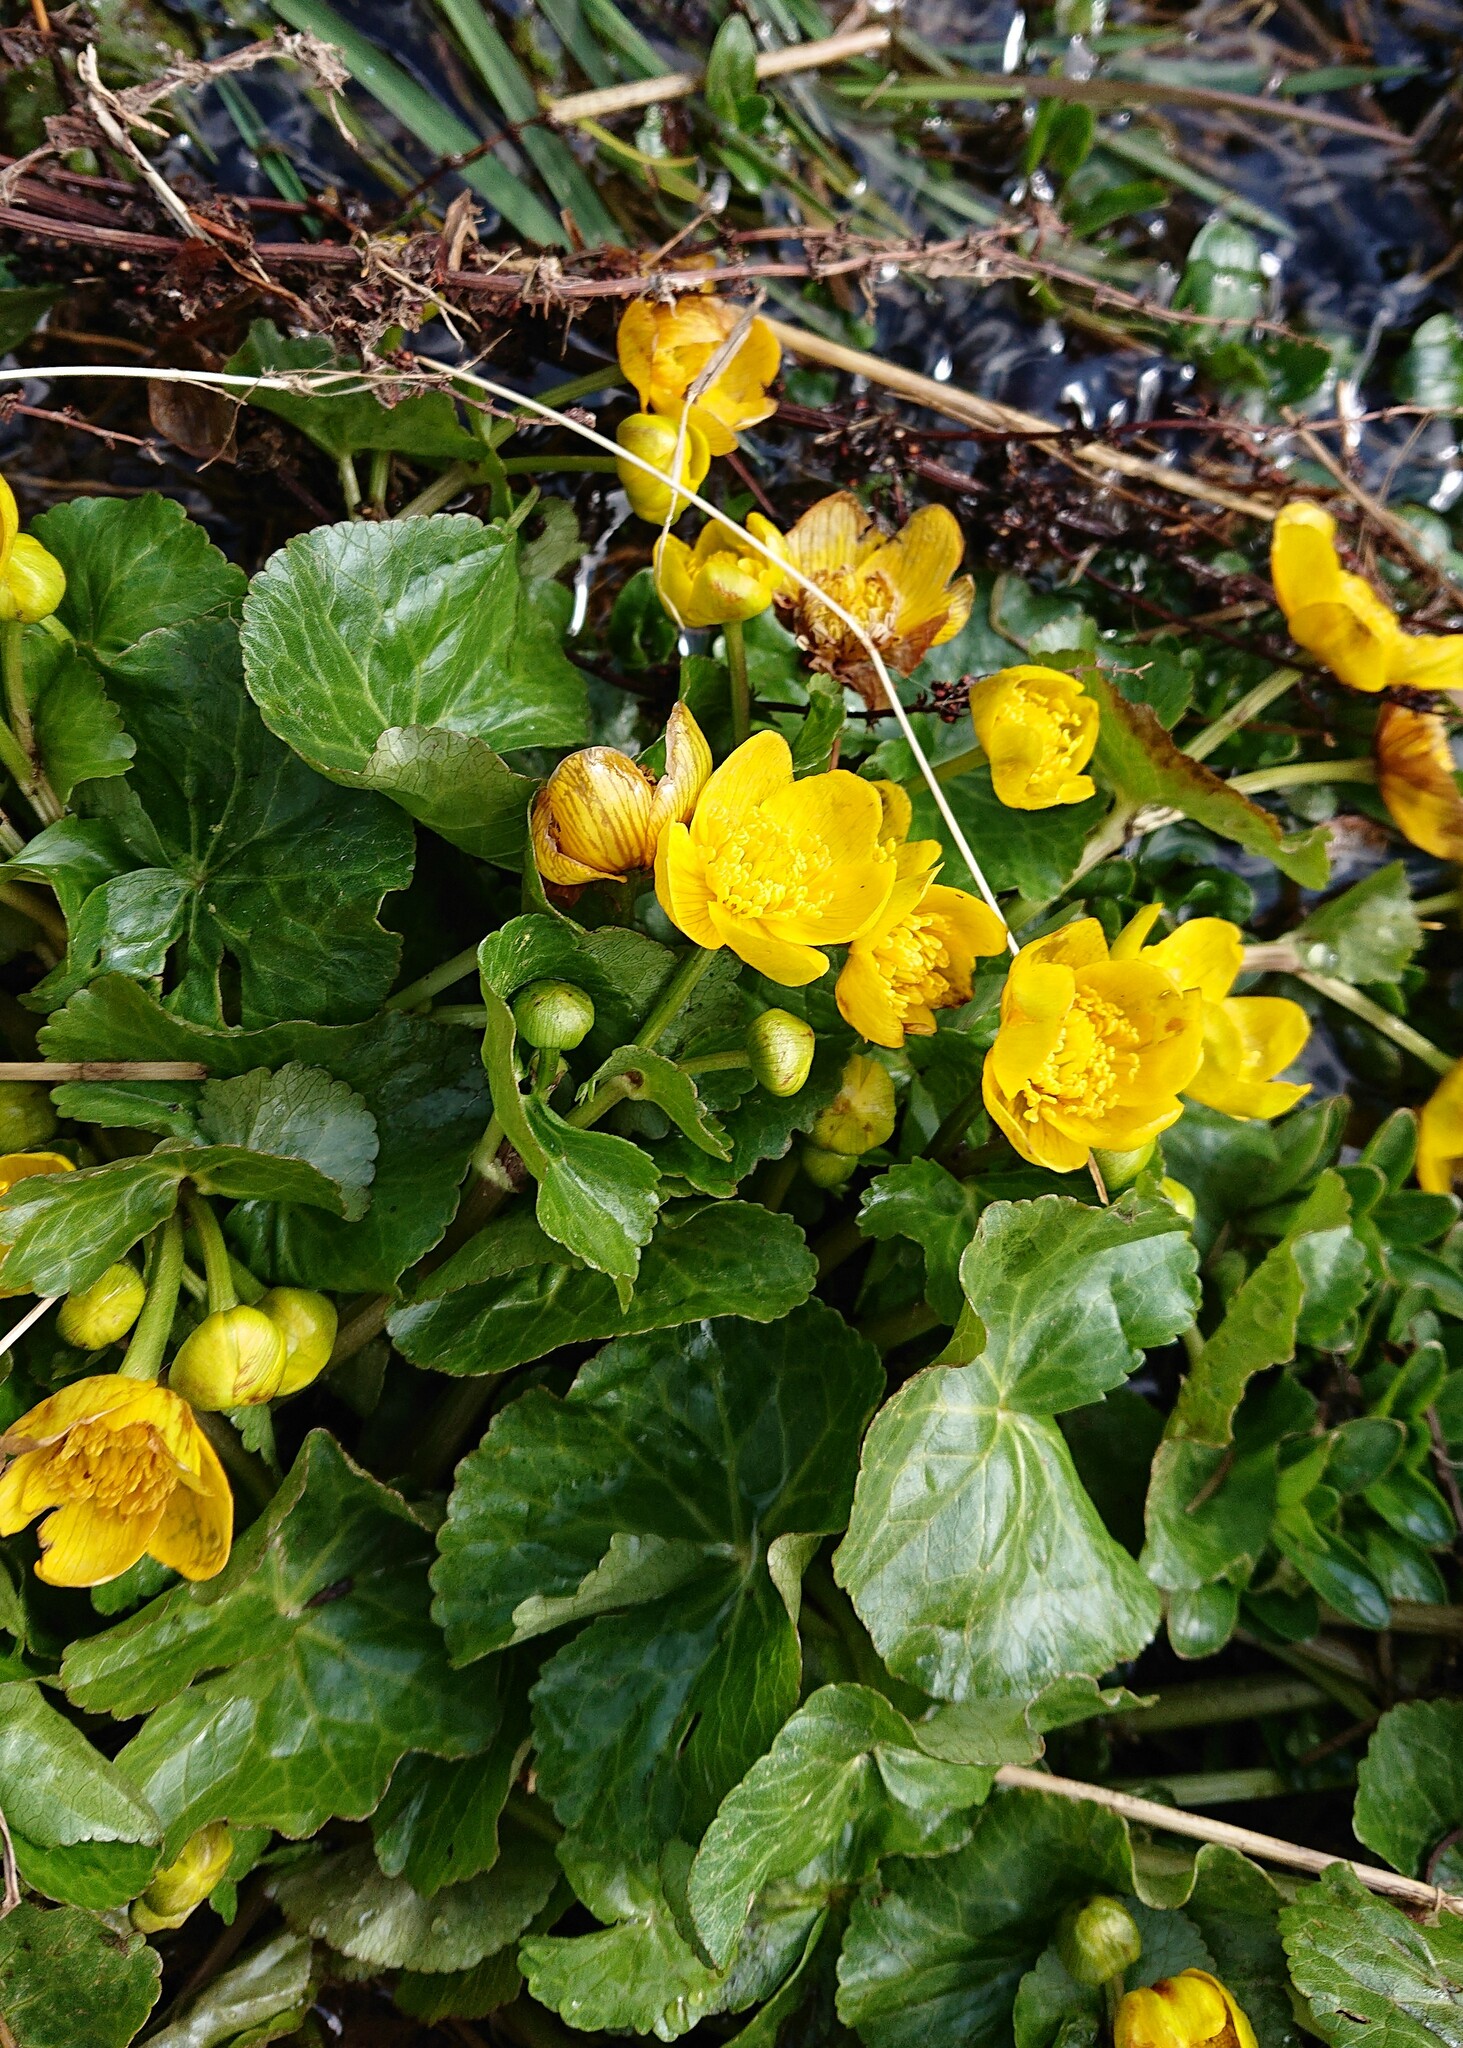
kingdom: Plantae
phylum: Tracheophyta
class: Magnoliopsida
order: Ranunculales
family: Ranunculaceae
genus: Caltha
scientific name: Caltha palustris
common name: Marsh marigold
